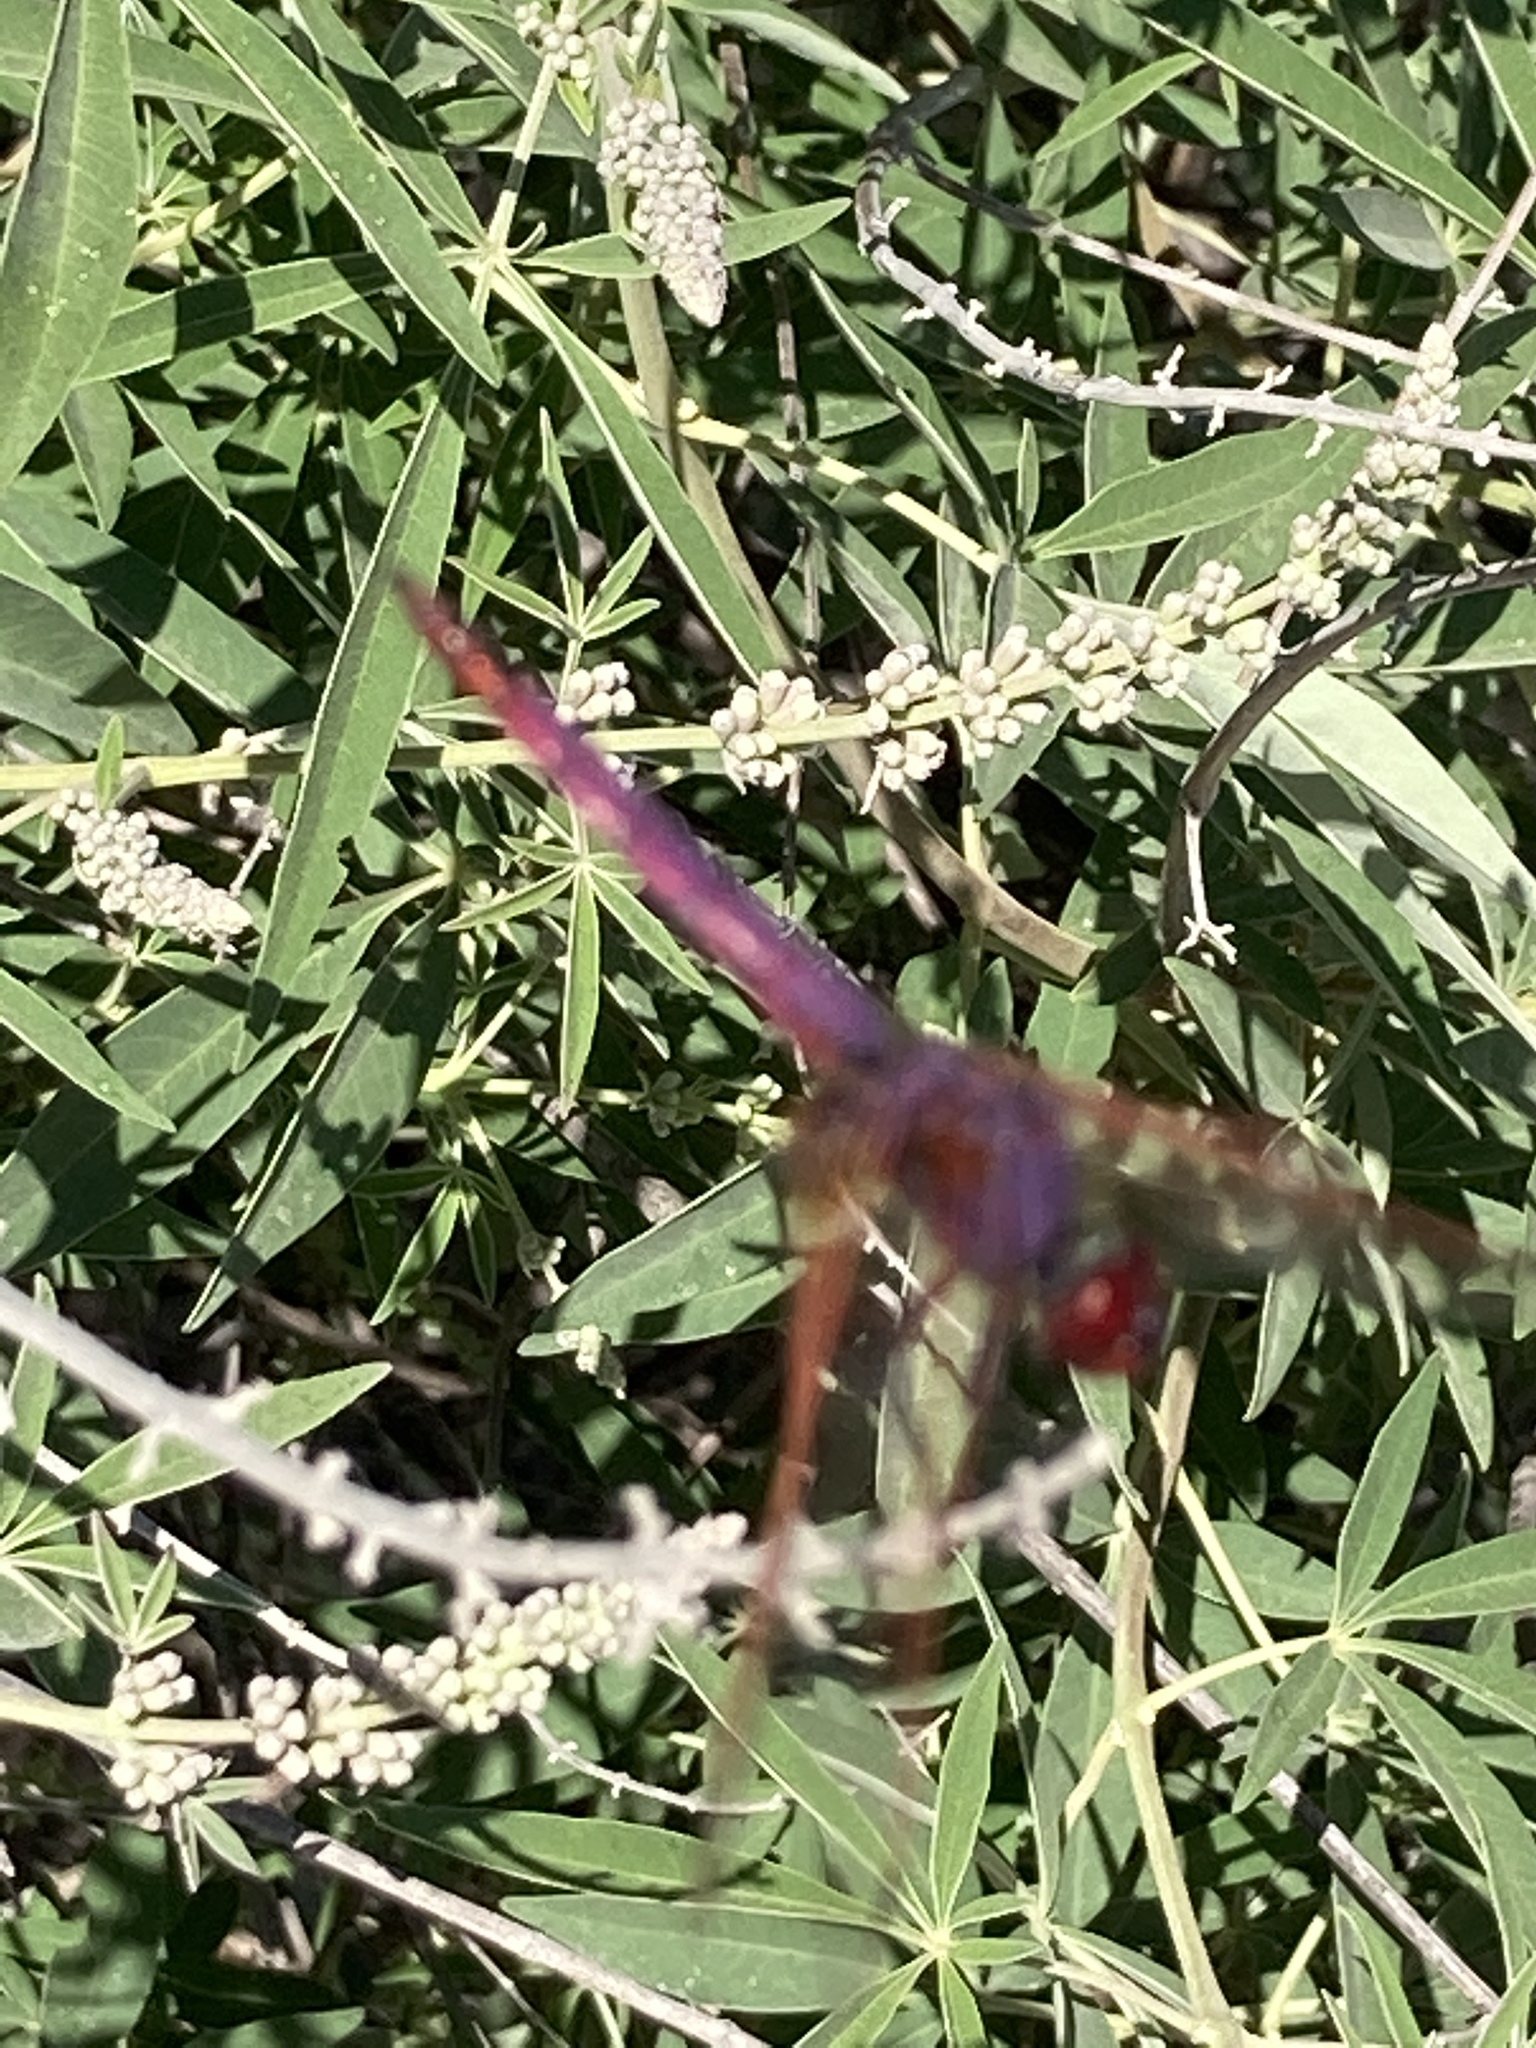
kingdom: Animalia
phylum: Arthropoda
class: Insecta
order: Odonata
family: Libellulidae
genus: Trithemis
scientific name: Trithemis annulata
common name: Violet dropwing
